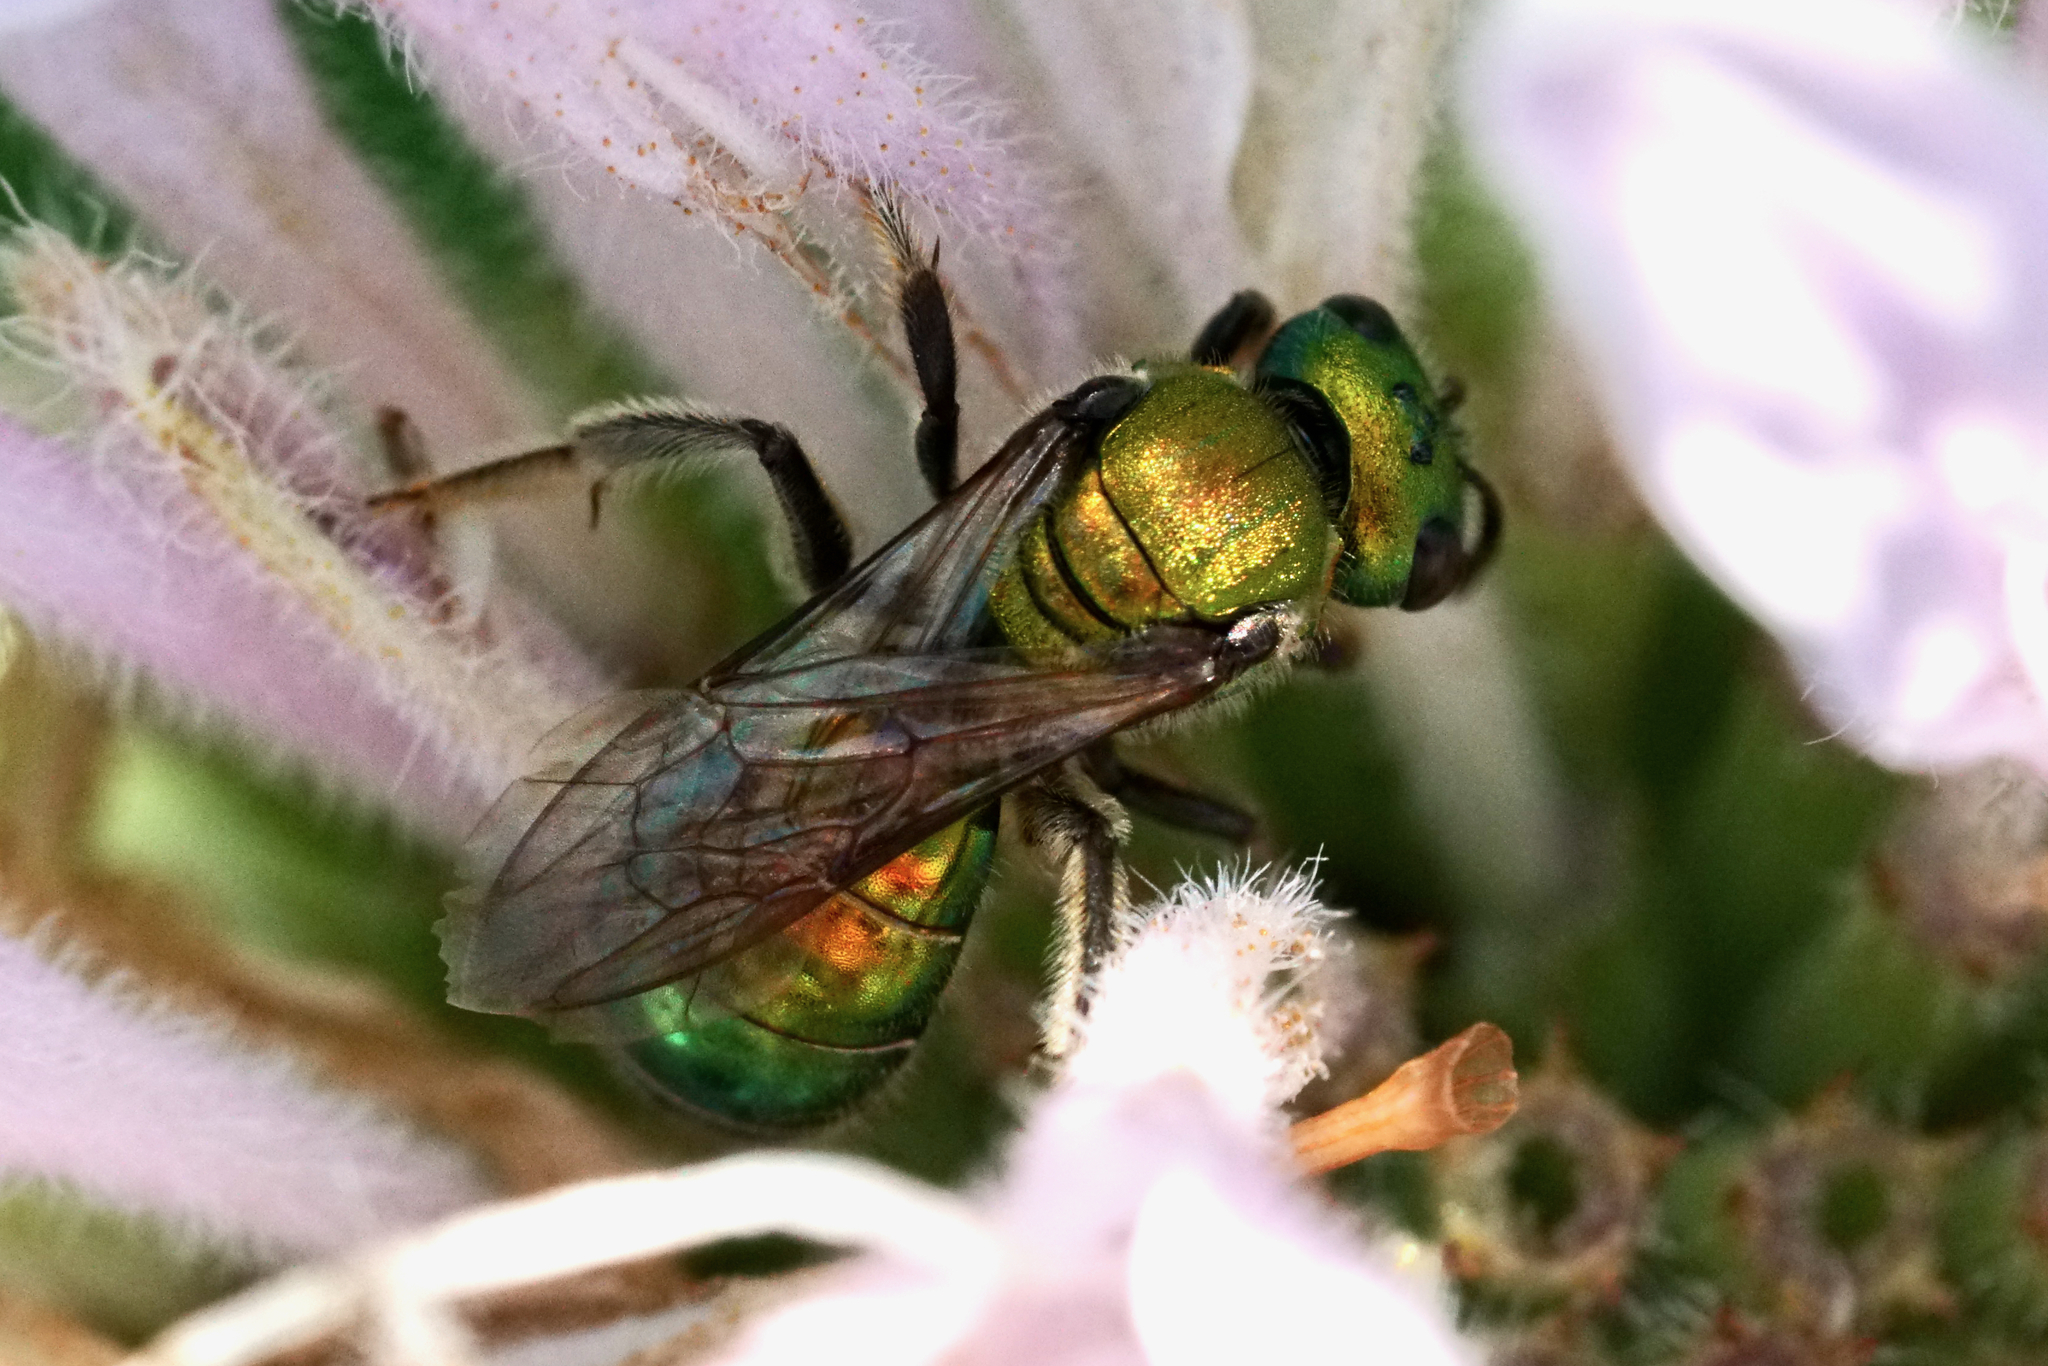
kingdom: Animalia
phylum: Arthropoda
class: Insecta
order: Hymenoptera
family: Halictidae
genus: Augochlora
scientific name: Augochlora pura
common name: Pure green sweat bee
